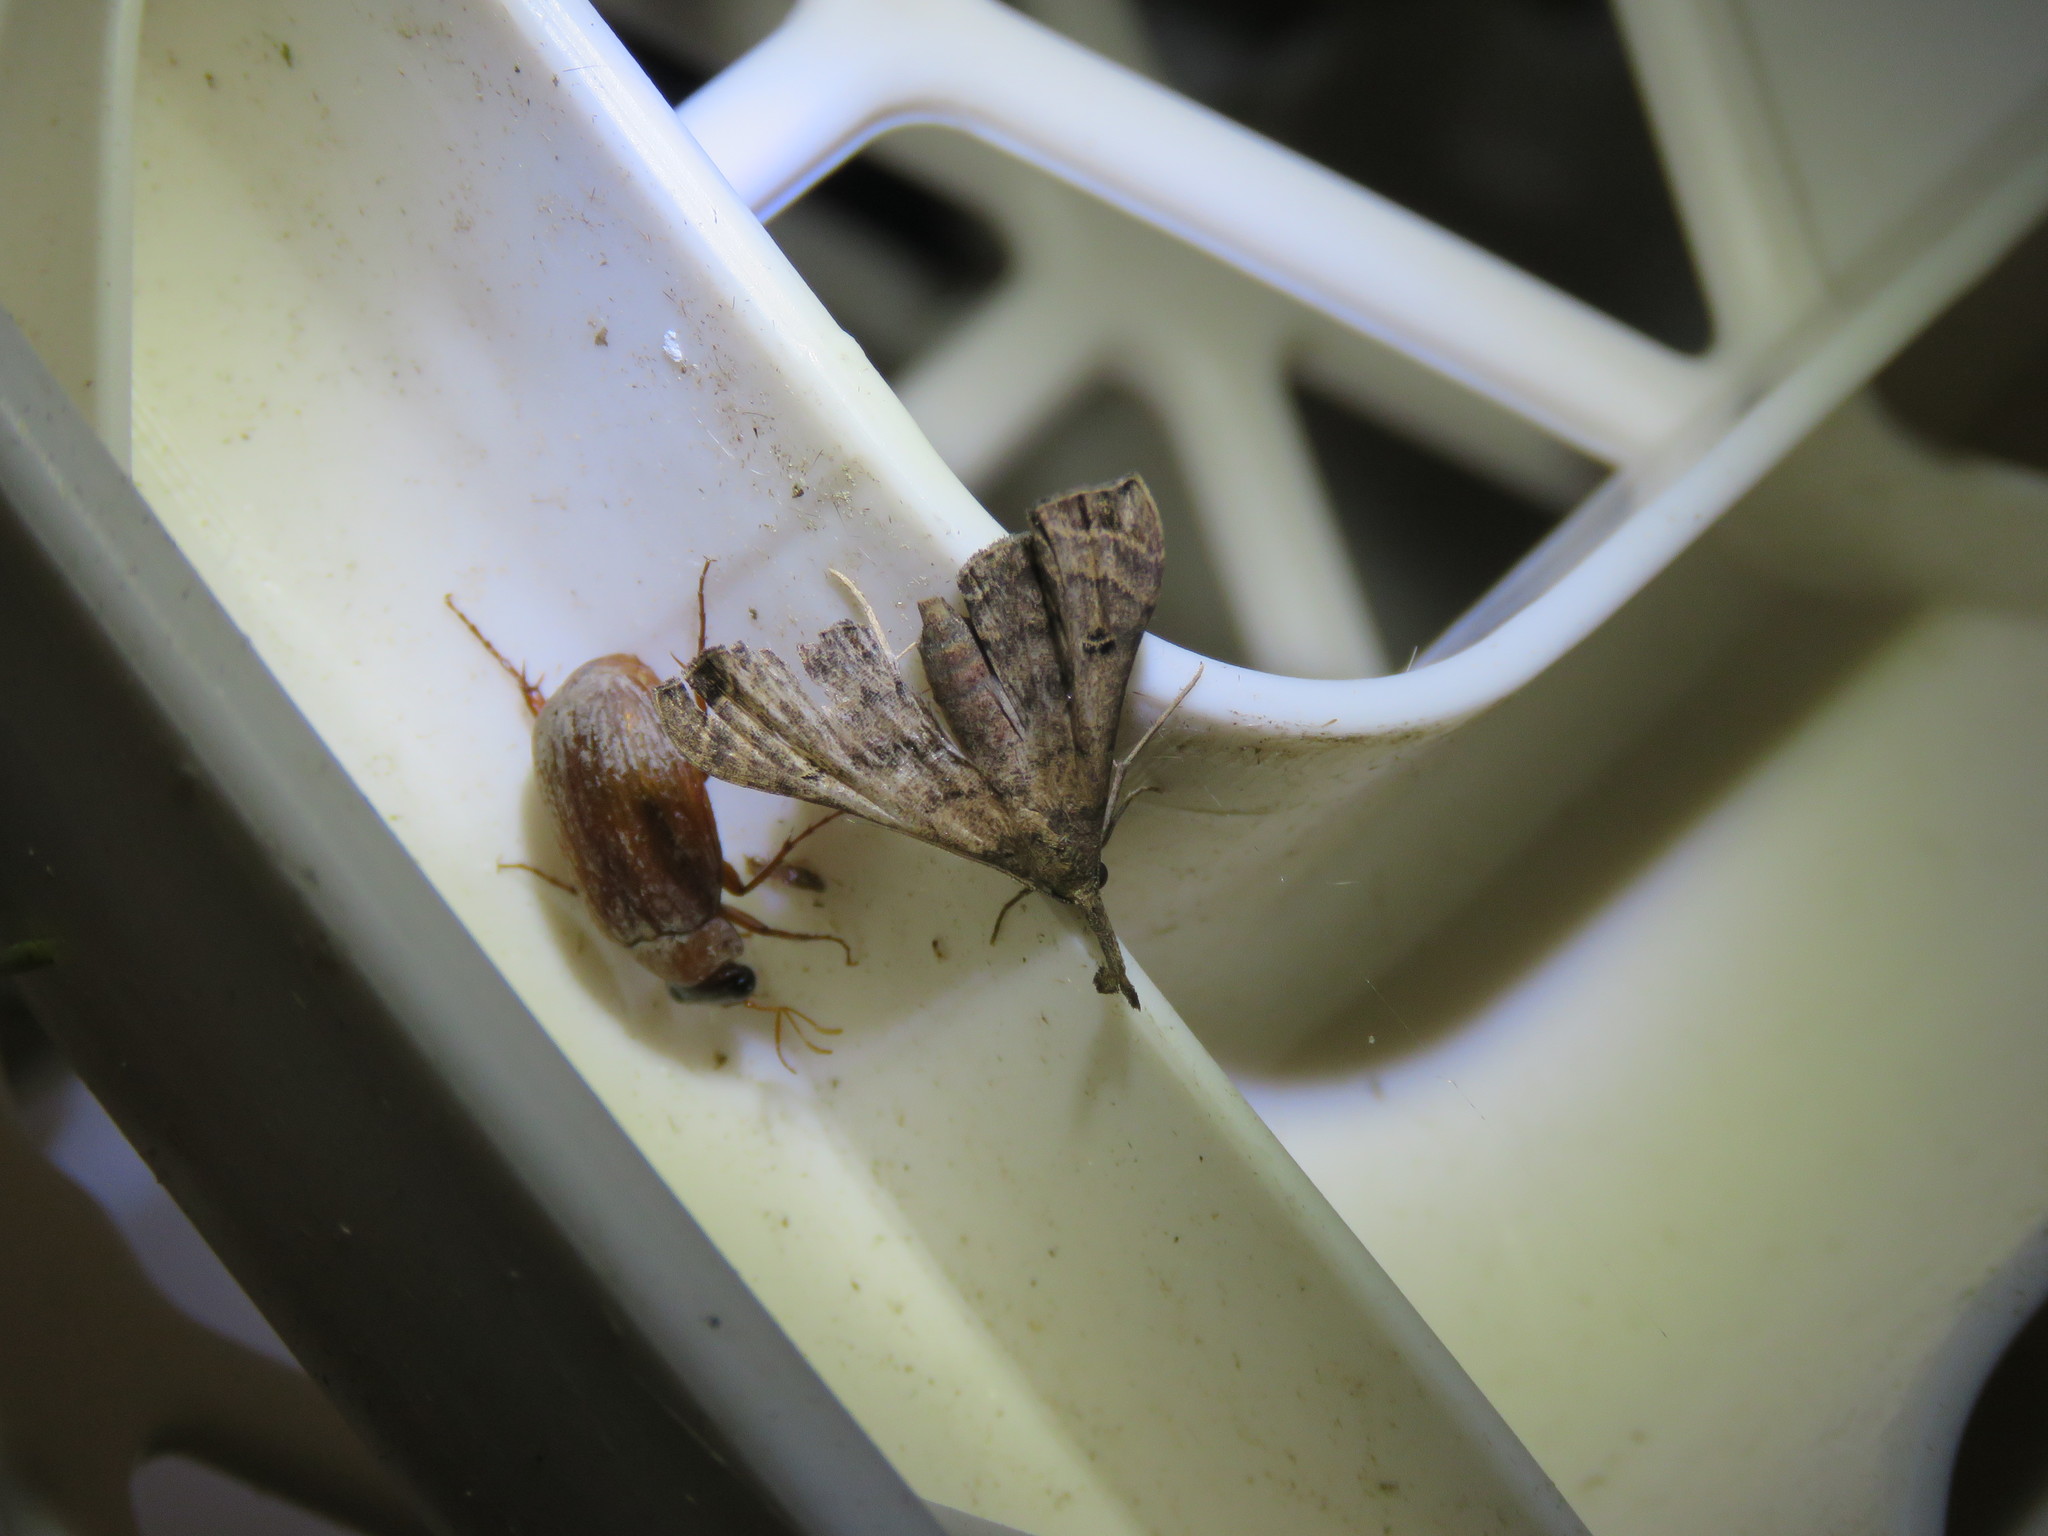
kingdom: Animalia
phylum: Arthropoda
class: Insecta
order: Lepidoptera
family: Erebidae
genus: Palthis
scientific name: Palthis asopialis
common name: Faint-spotted palthis moth
